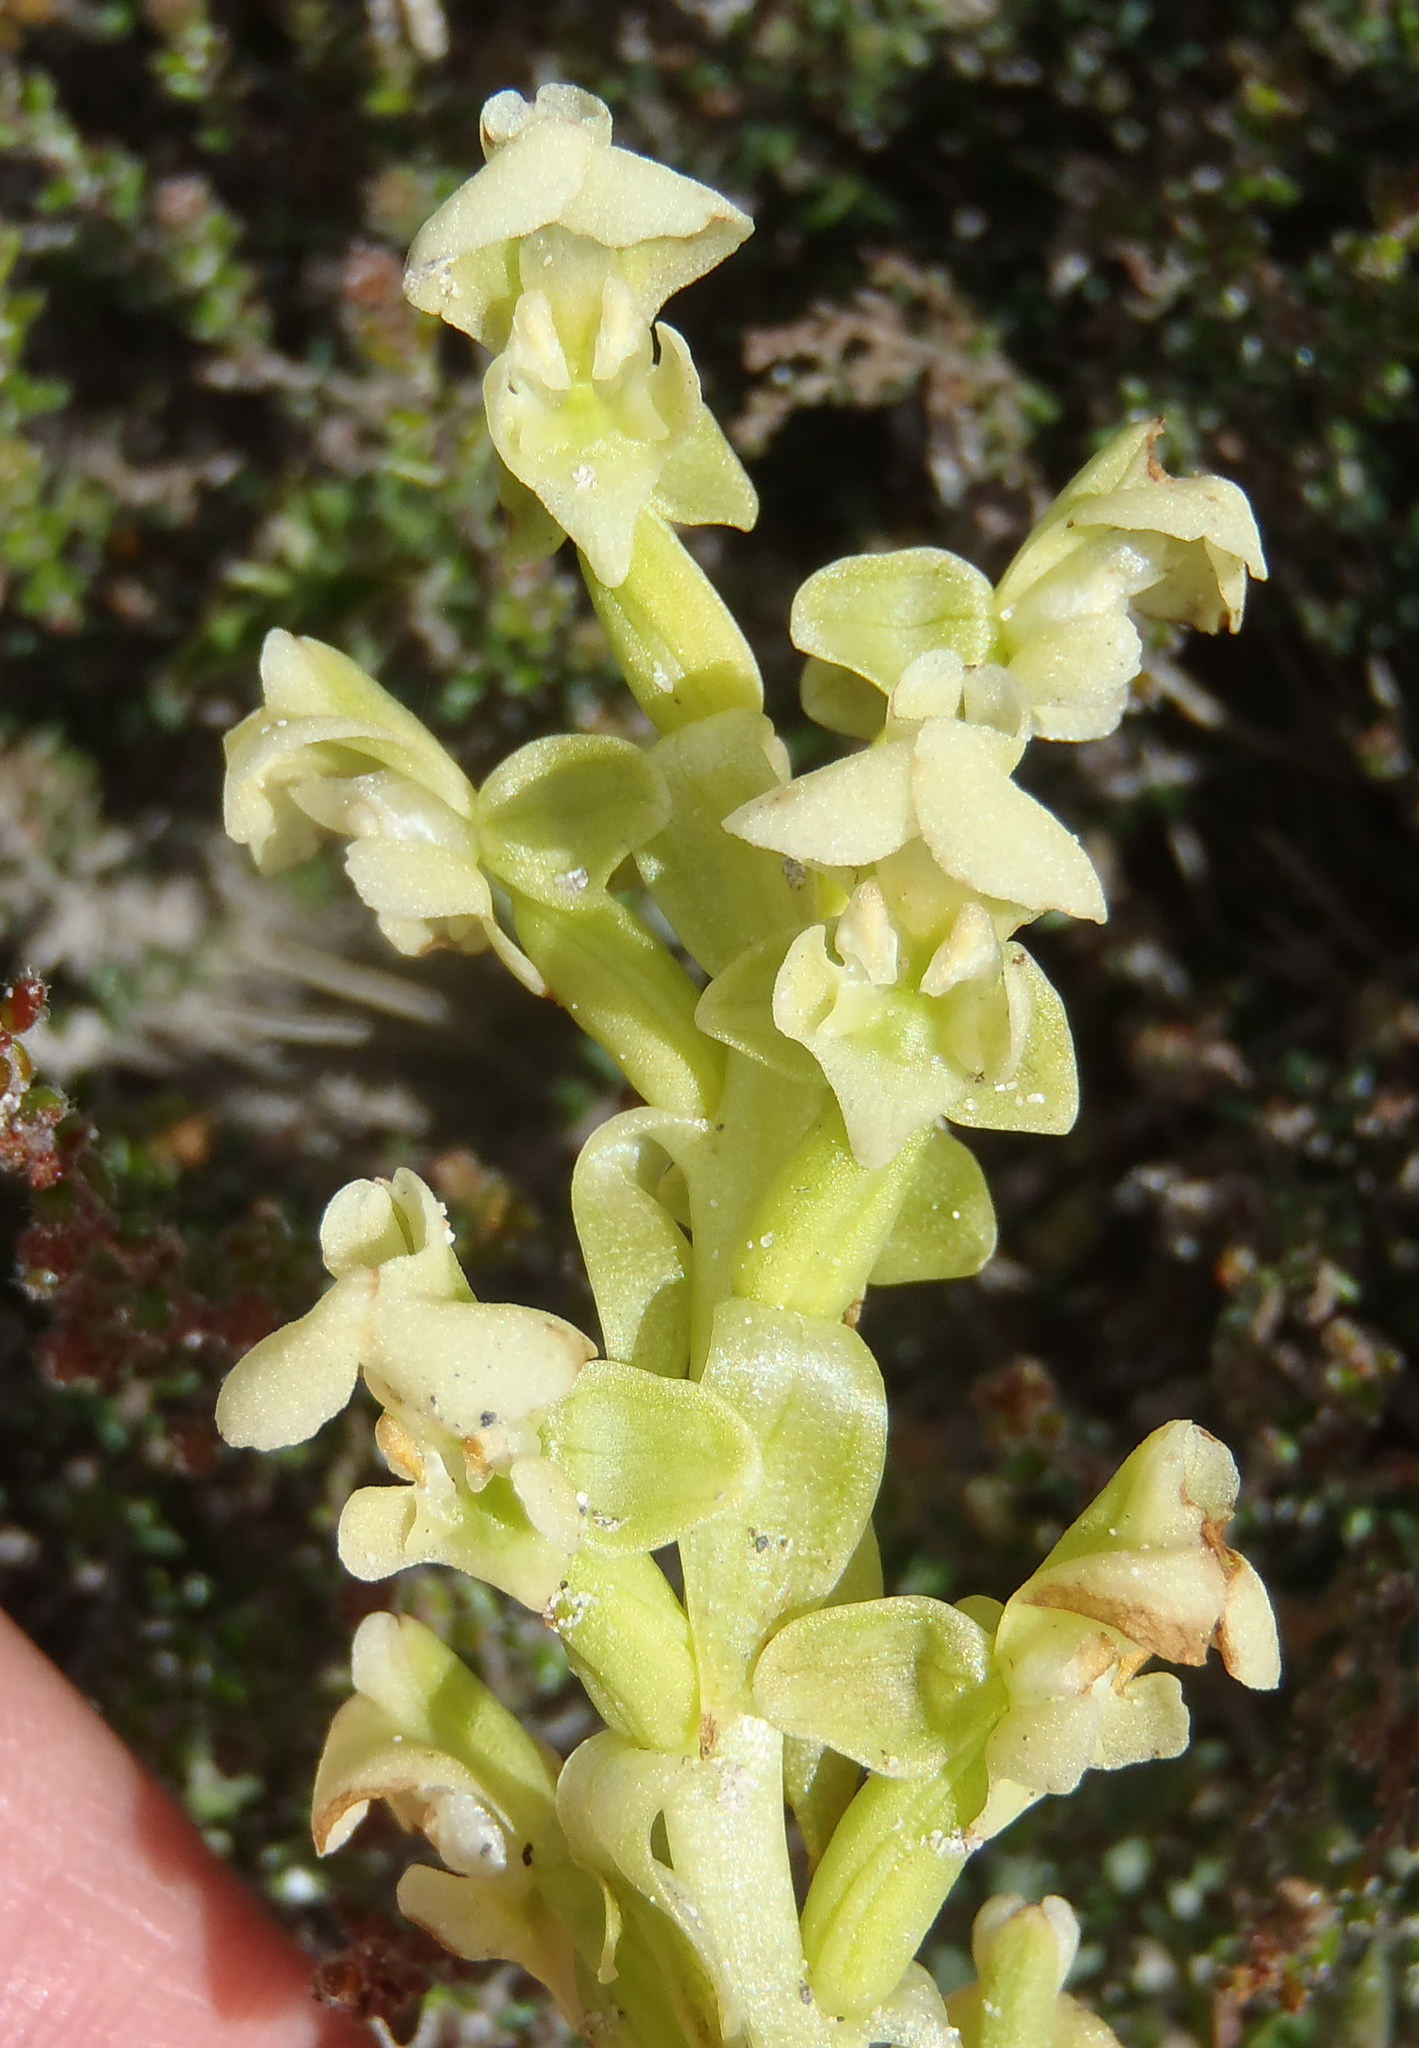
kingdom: Plantae
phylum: Tracheophyta
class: Liliopsida
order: Asparagales
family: Orchidaceae
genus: Pterygodium
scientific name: Pterygodium volucris
